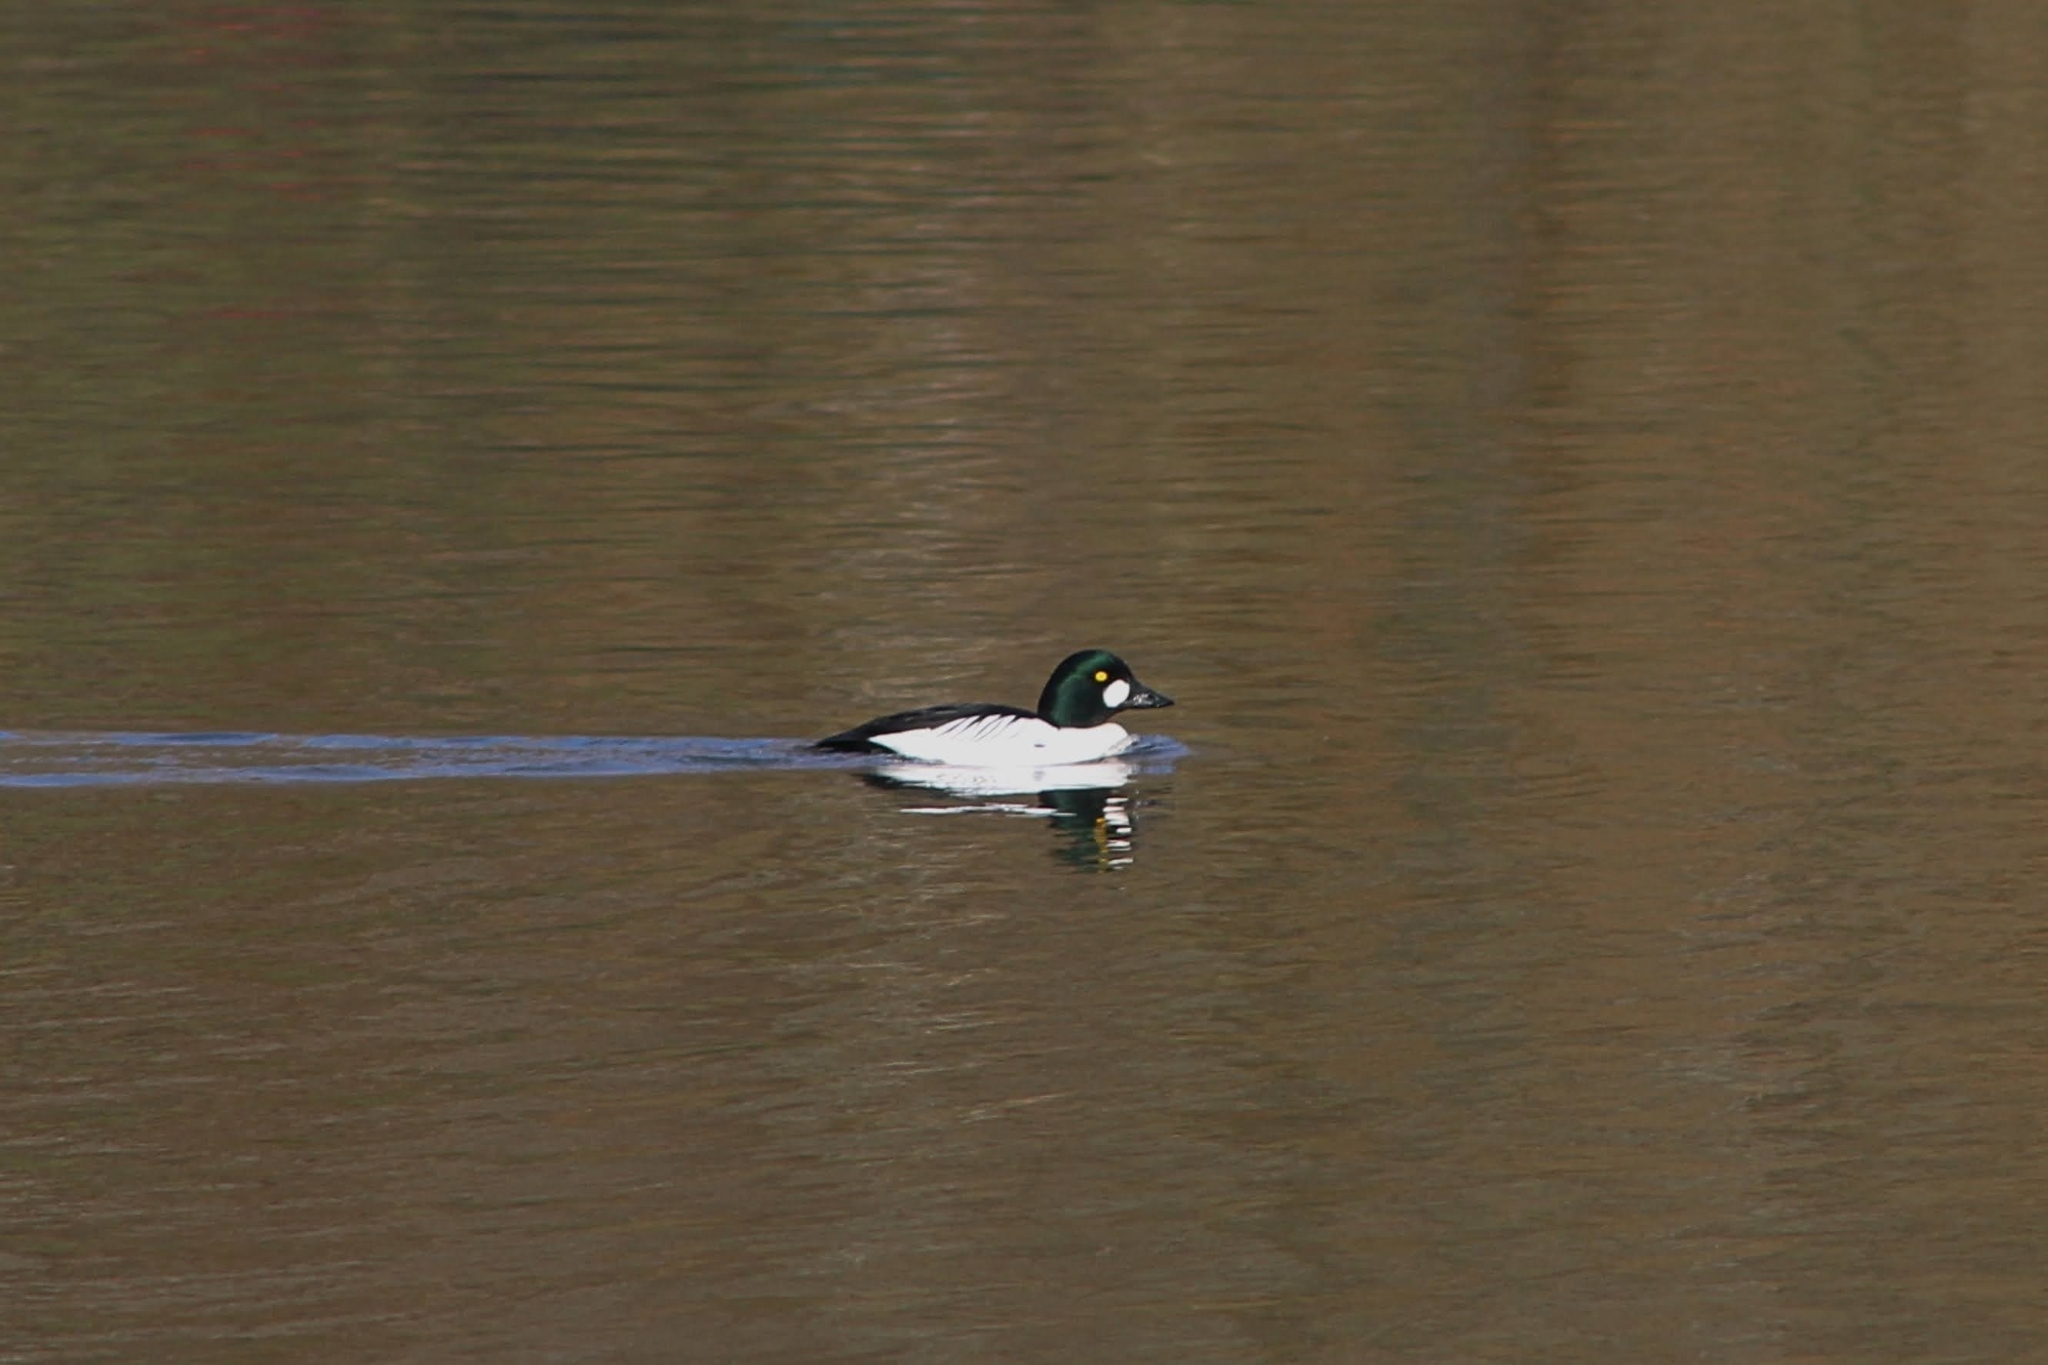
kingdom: Animalia
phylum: Chordata
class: Aves
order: Anseriformes
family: Anatidae
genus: Bucephala
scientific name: Bucephala clangula
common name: Common goldeneye
